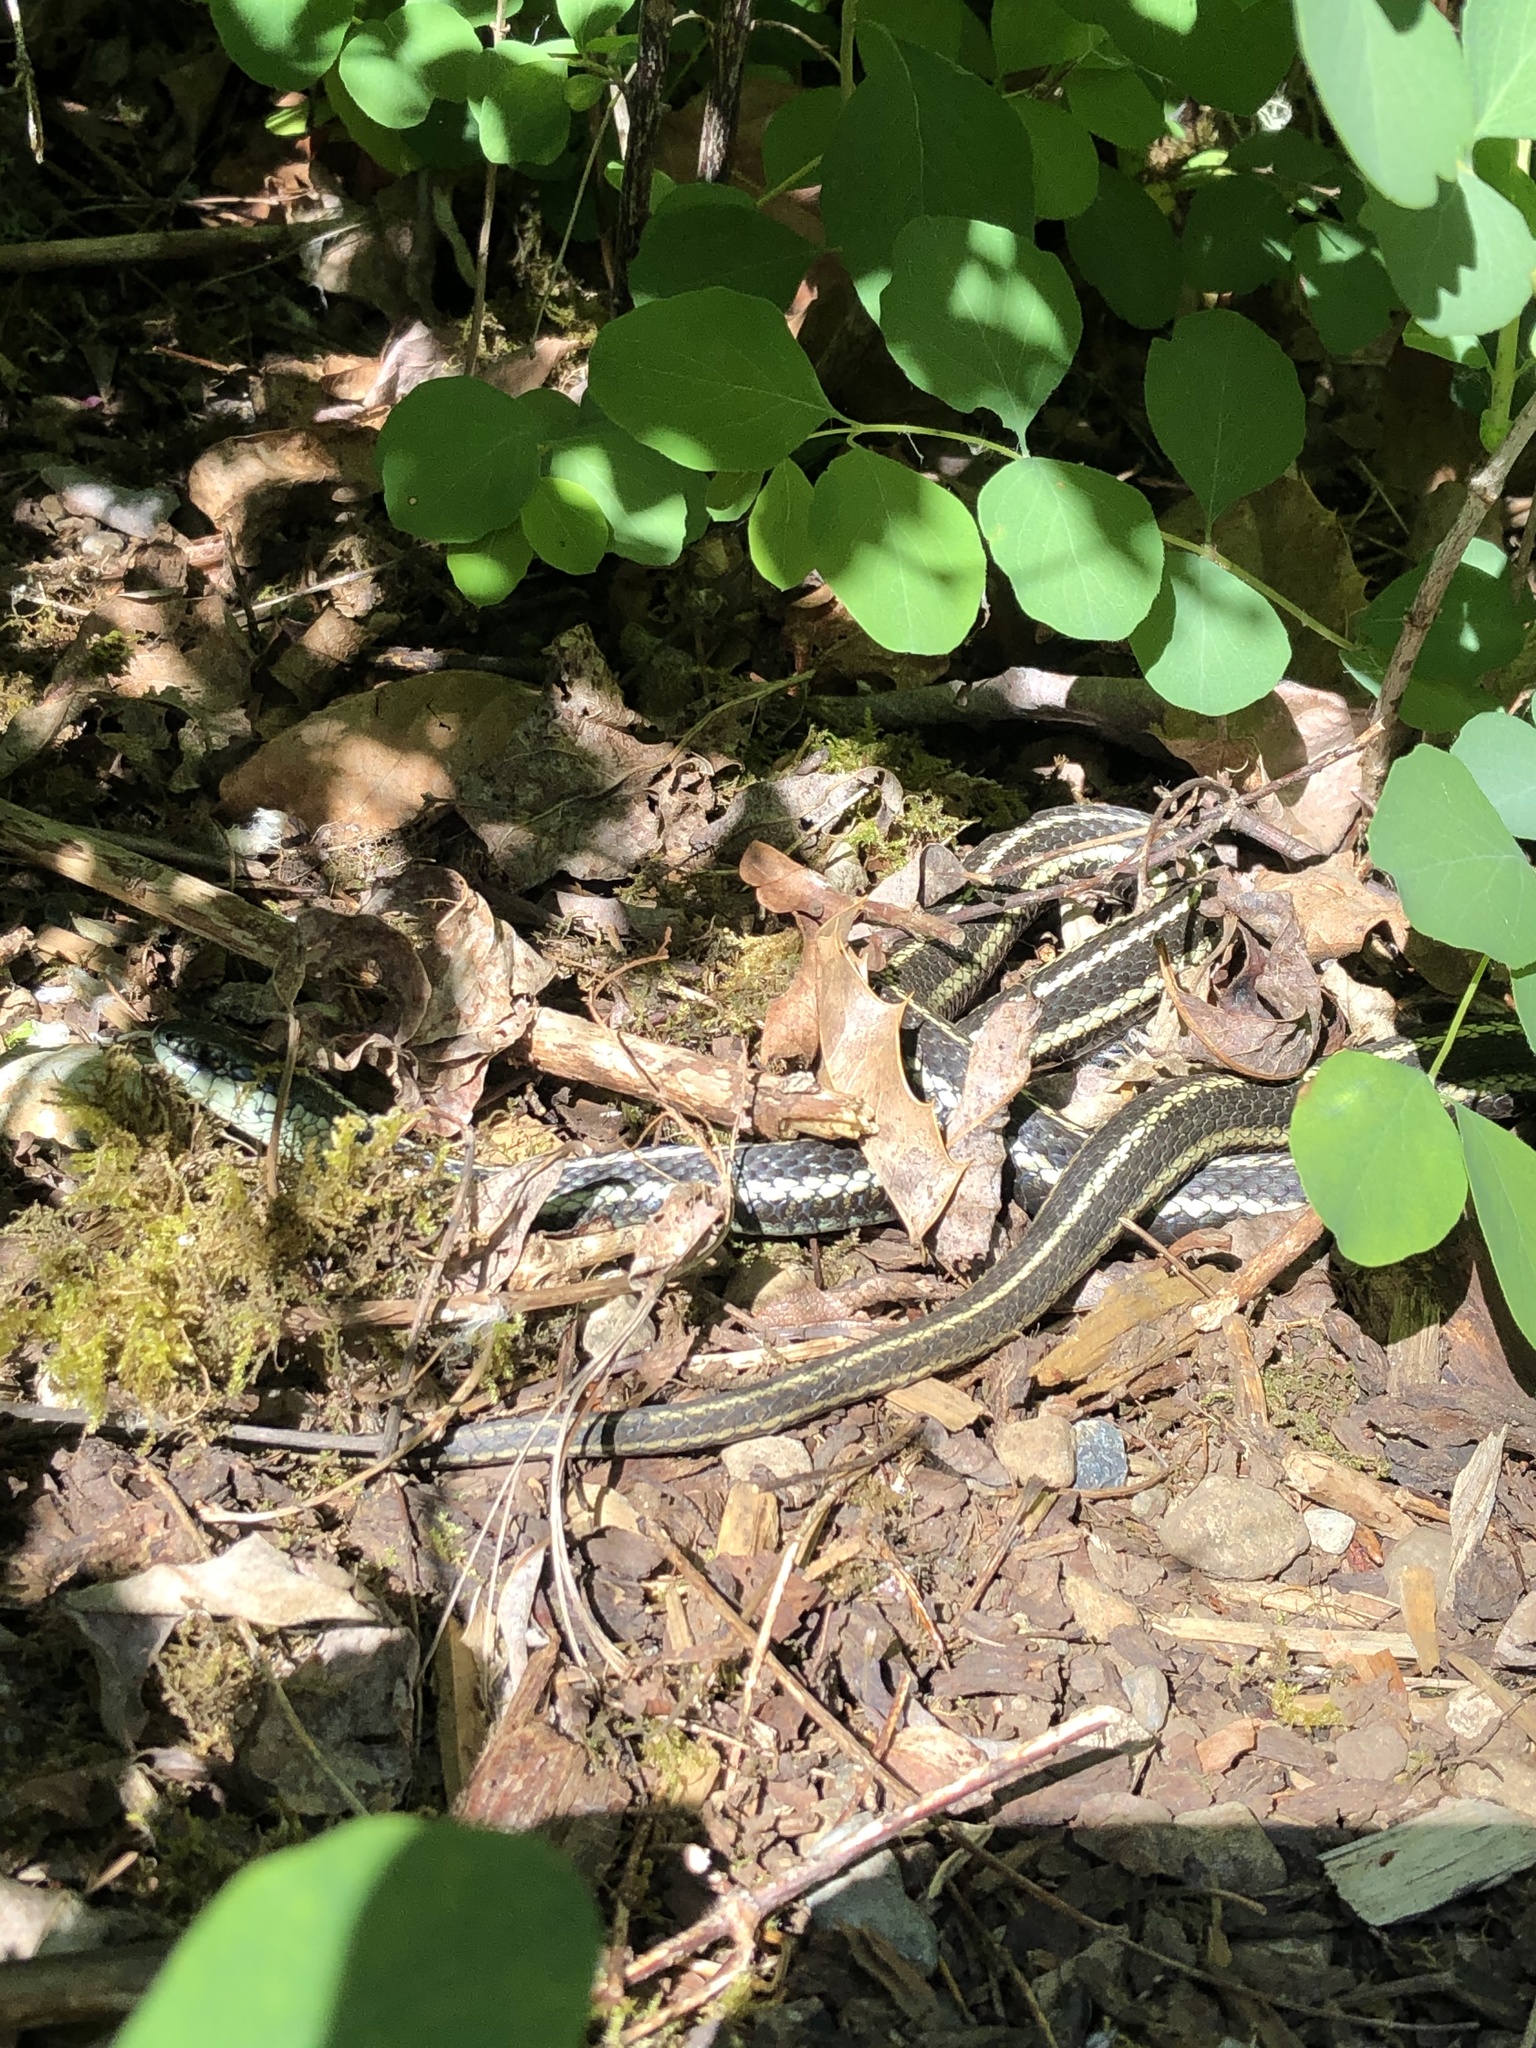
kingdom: Animalia
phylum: Chordata
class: Squamata
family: Colubridae
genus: Thamnophis
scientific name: Thamnophis ordinoides
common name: Northwestern garter snake
